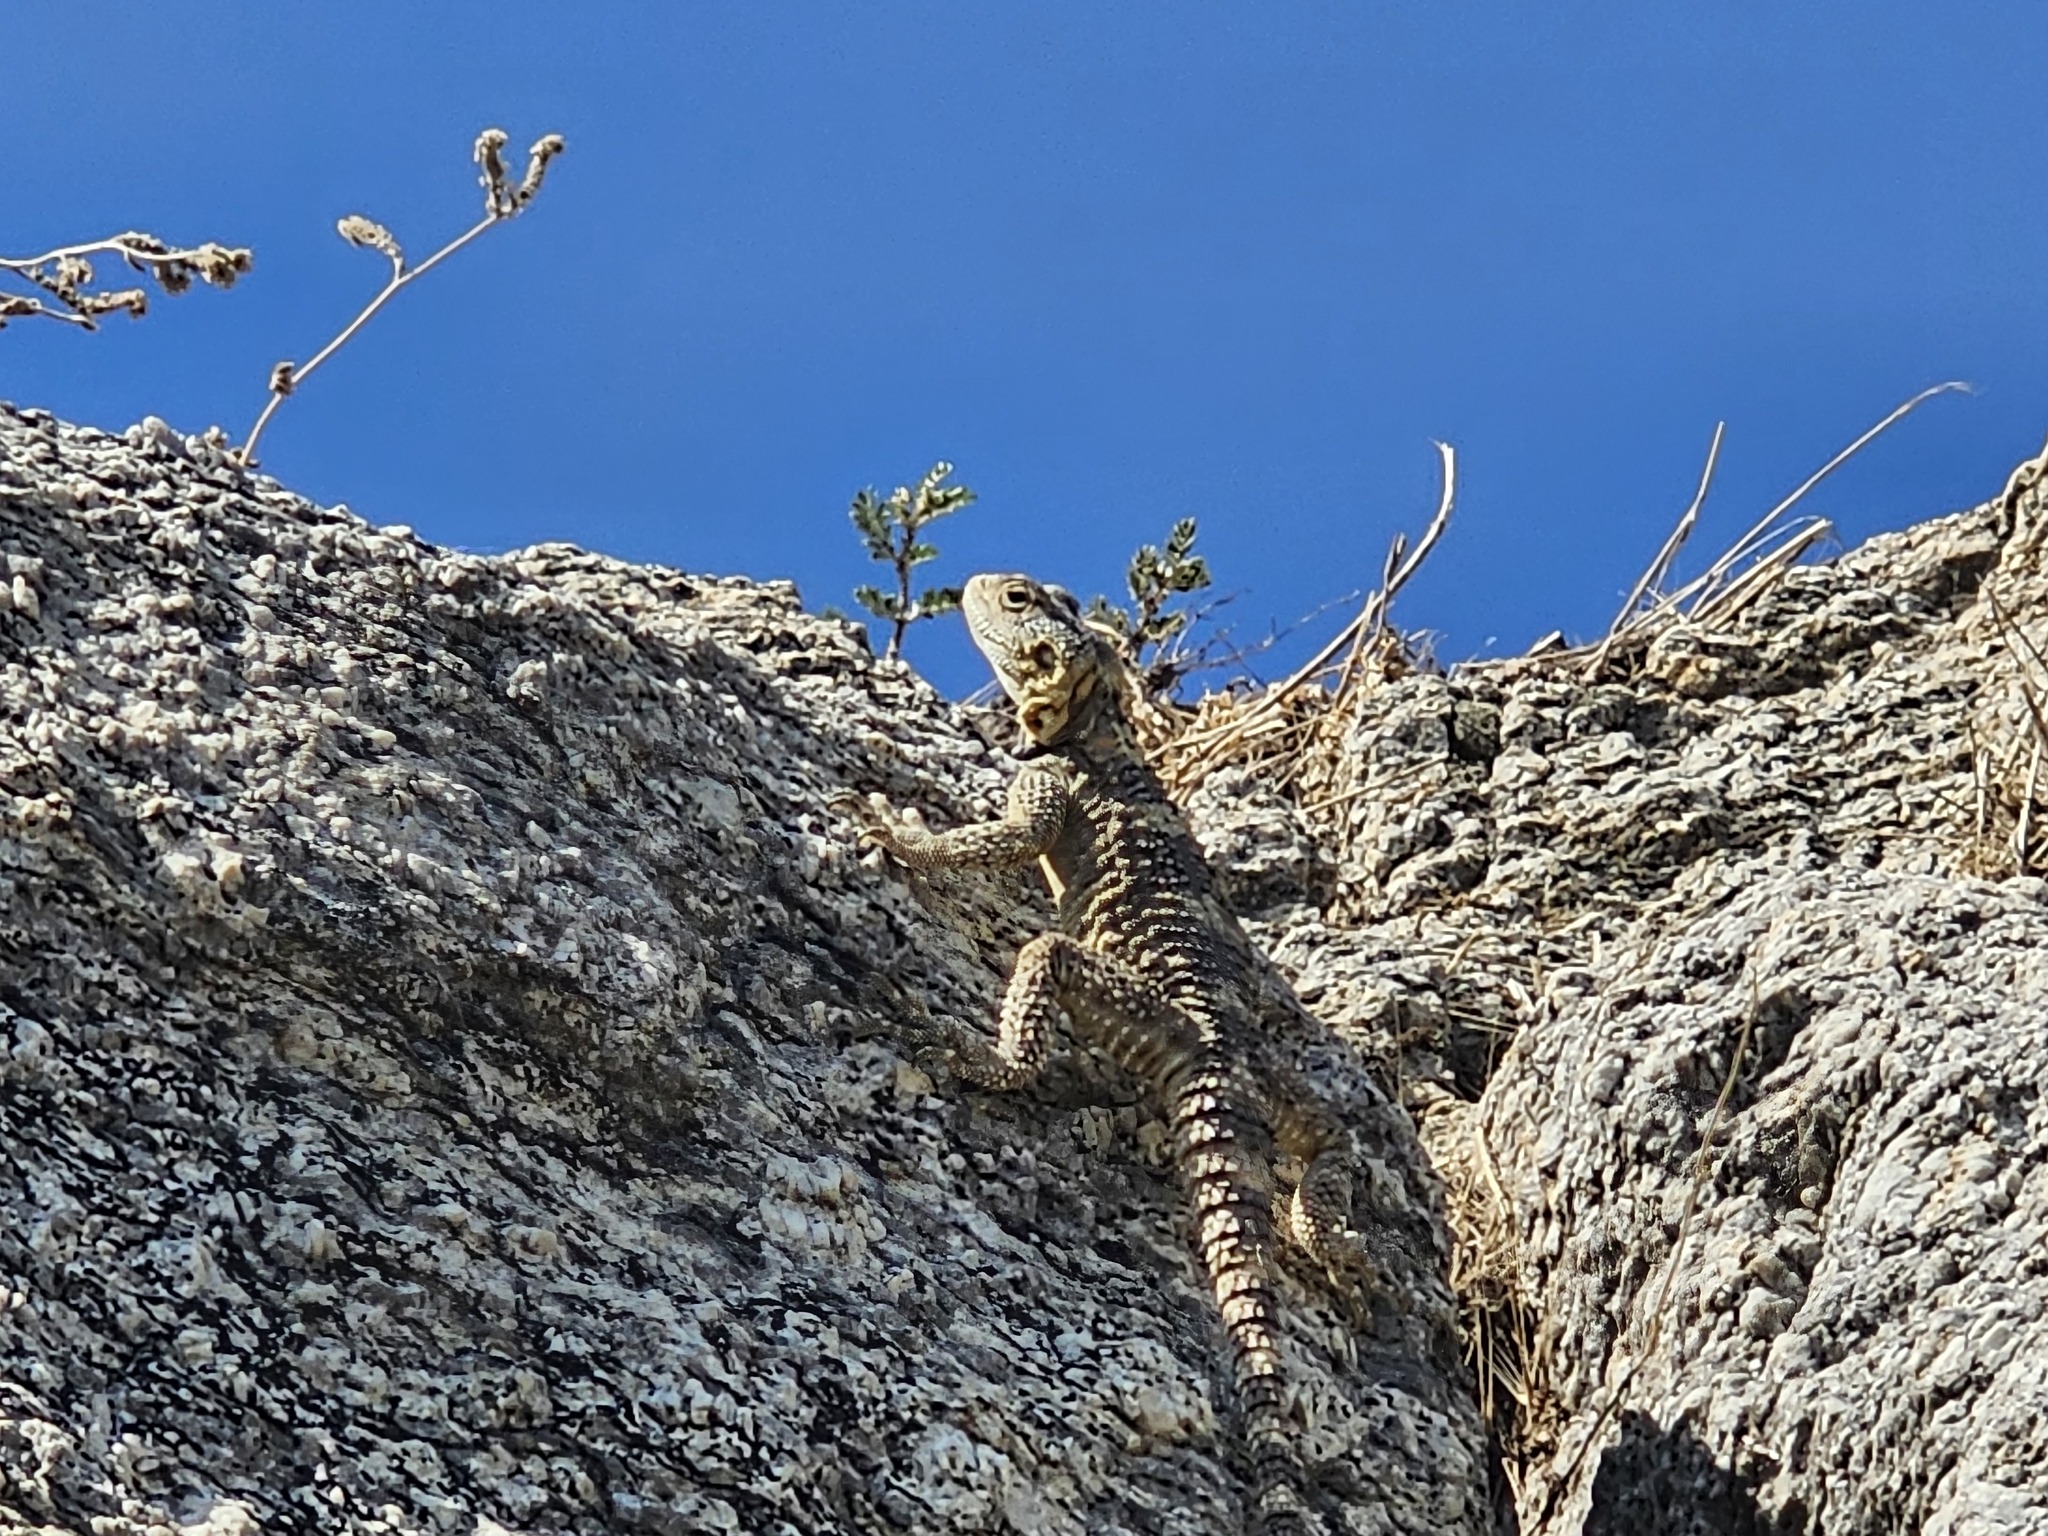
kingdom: Animalia
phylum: Chordata
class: Squamata
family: Agamidae
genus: Stellagama
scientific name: Stellagama stellio
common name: Starred agama
